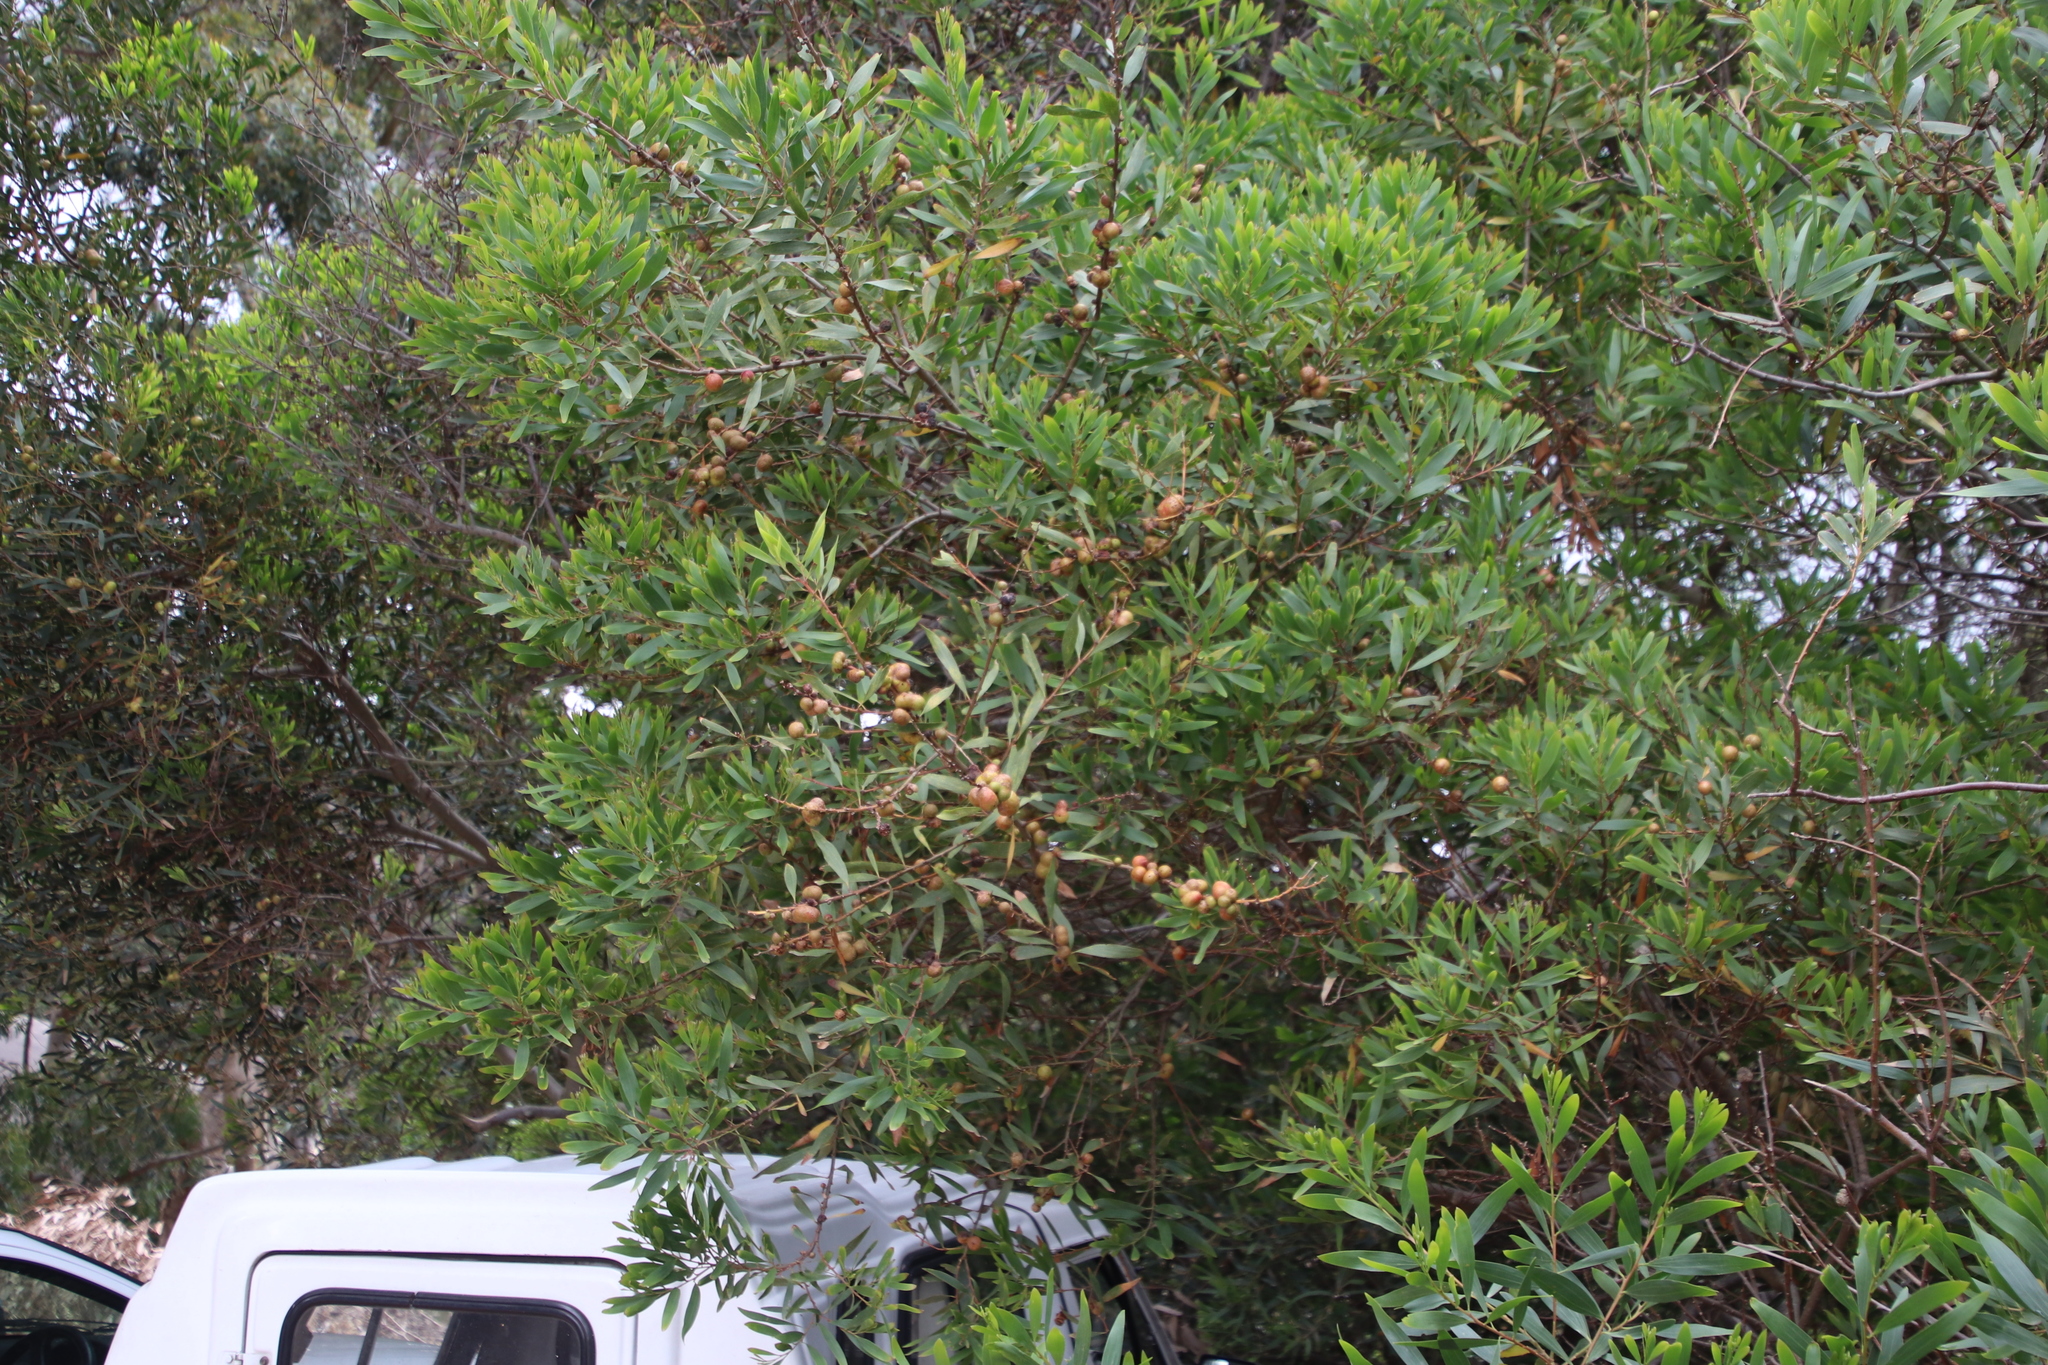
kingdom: Plantae
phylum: Tracheophyta
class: Magnoliopsida
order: Fabales
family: Fabaceae
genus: Acacia
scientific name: Acacia longifolia
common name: Sydney golden wattle
